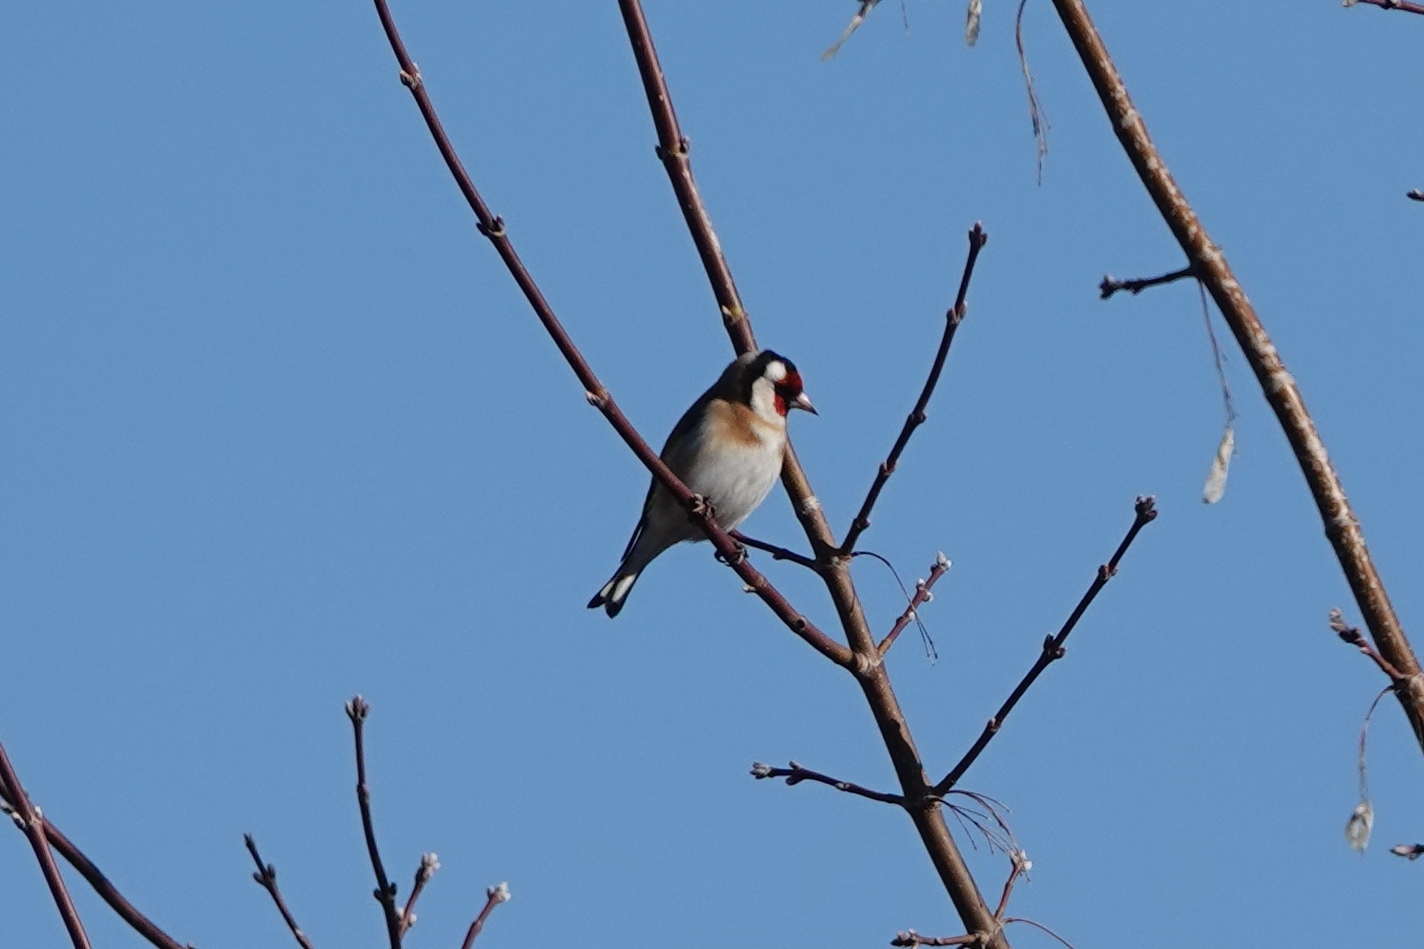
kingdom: Animalia
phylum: Chordata
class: Aves
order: Passeriformes
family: Fringillidae
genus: Carduelis
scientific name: Carduelis carduelis
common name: European goldfinch
